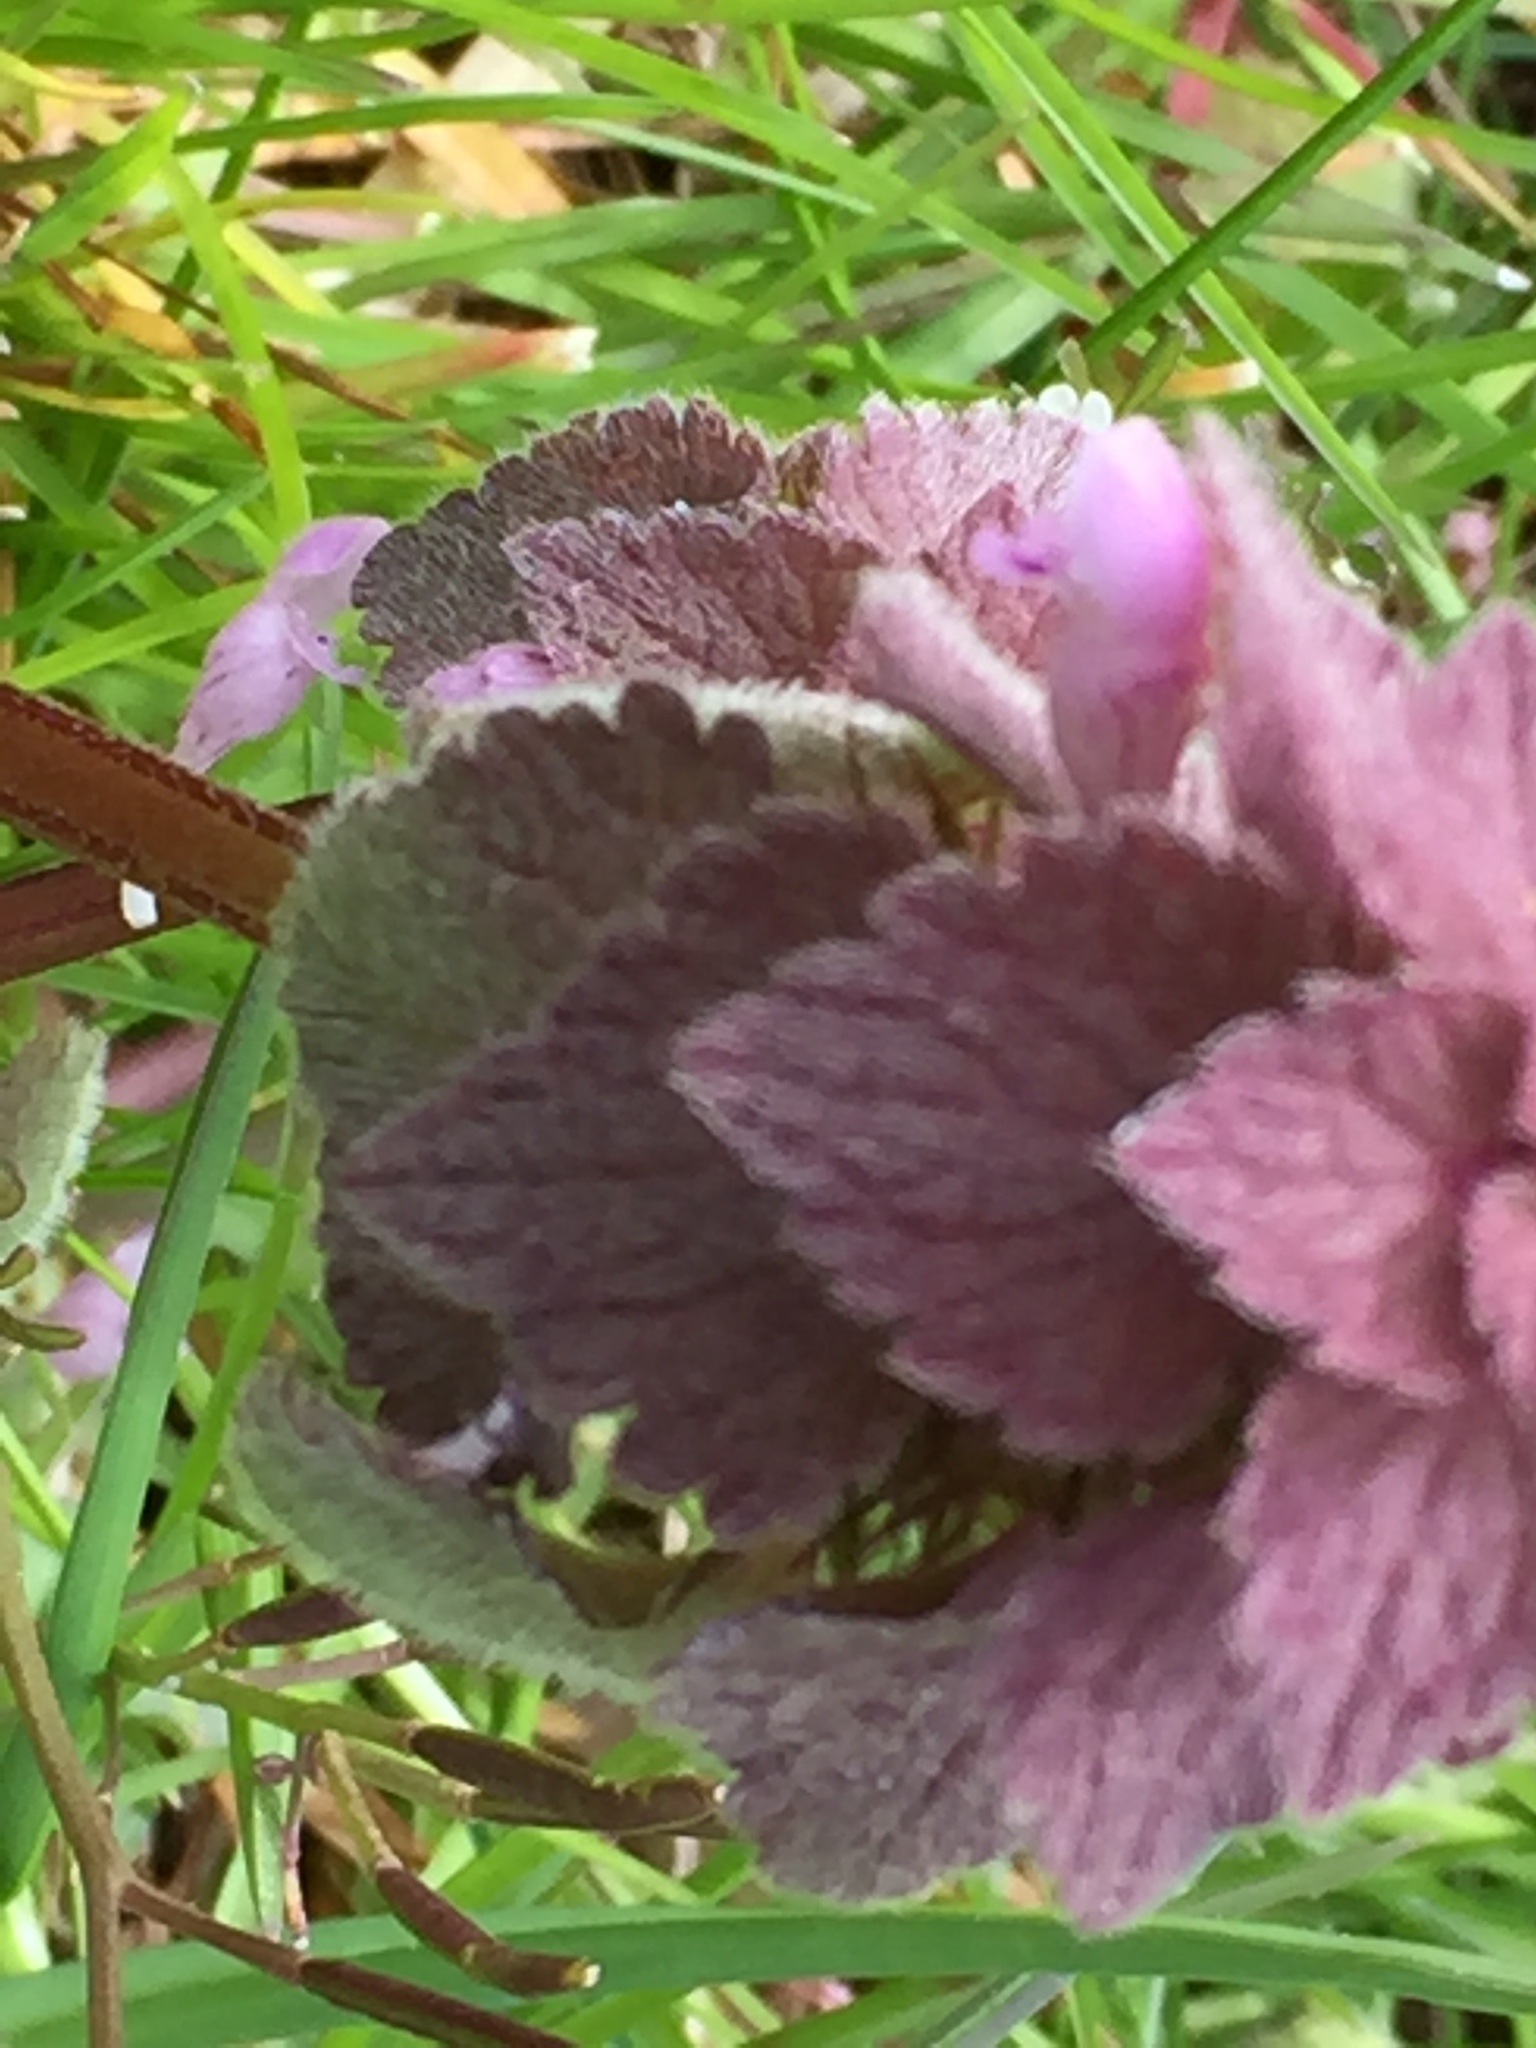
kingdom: Plantae
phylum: Tracheophyta
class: Magnoliopsida
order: Lamiales
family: Lamiaceae
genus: Lamium
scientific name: Lamium purpureum
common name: Red dead-nettle
